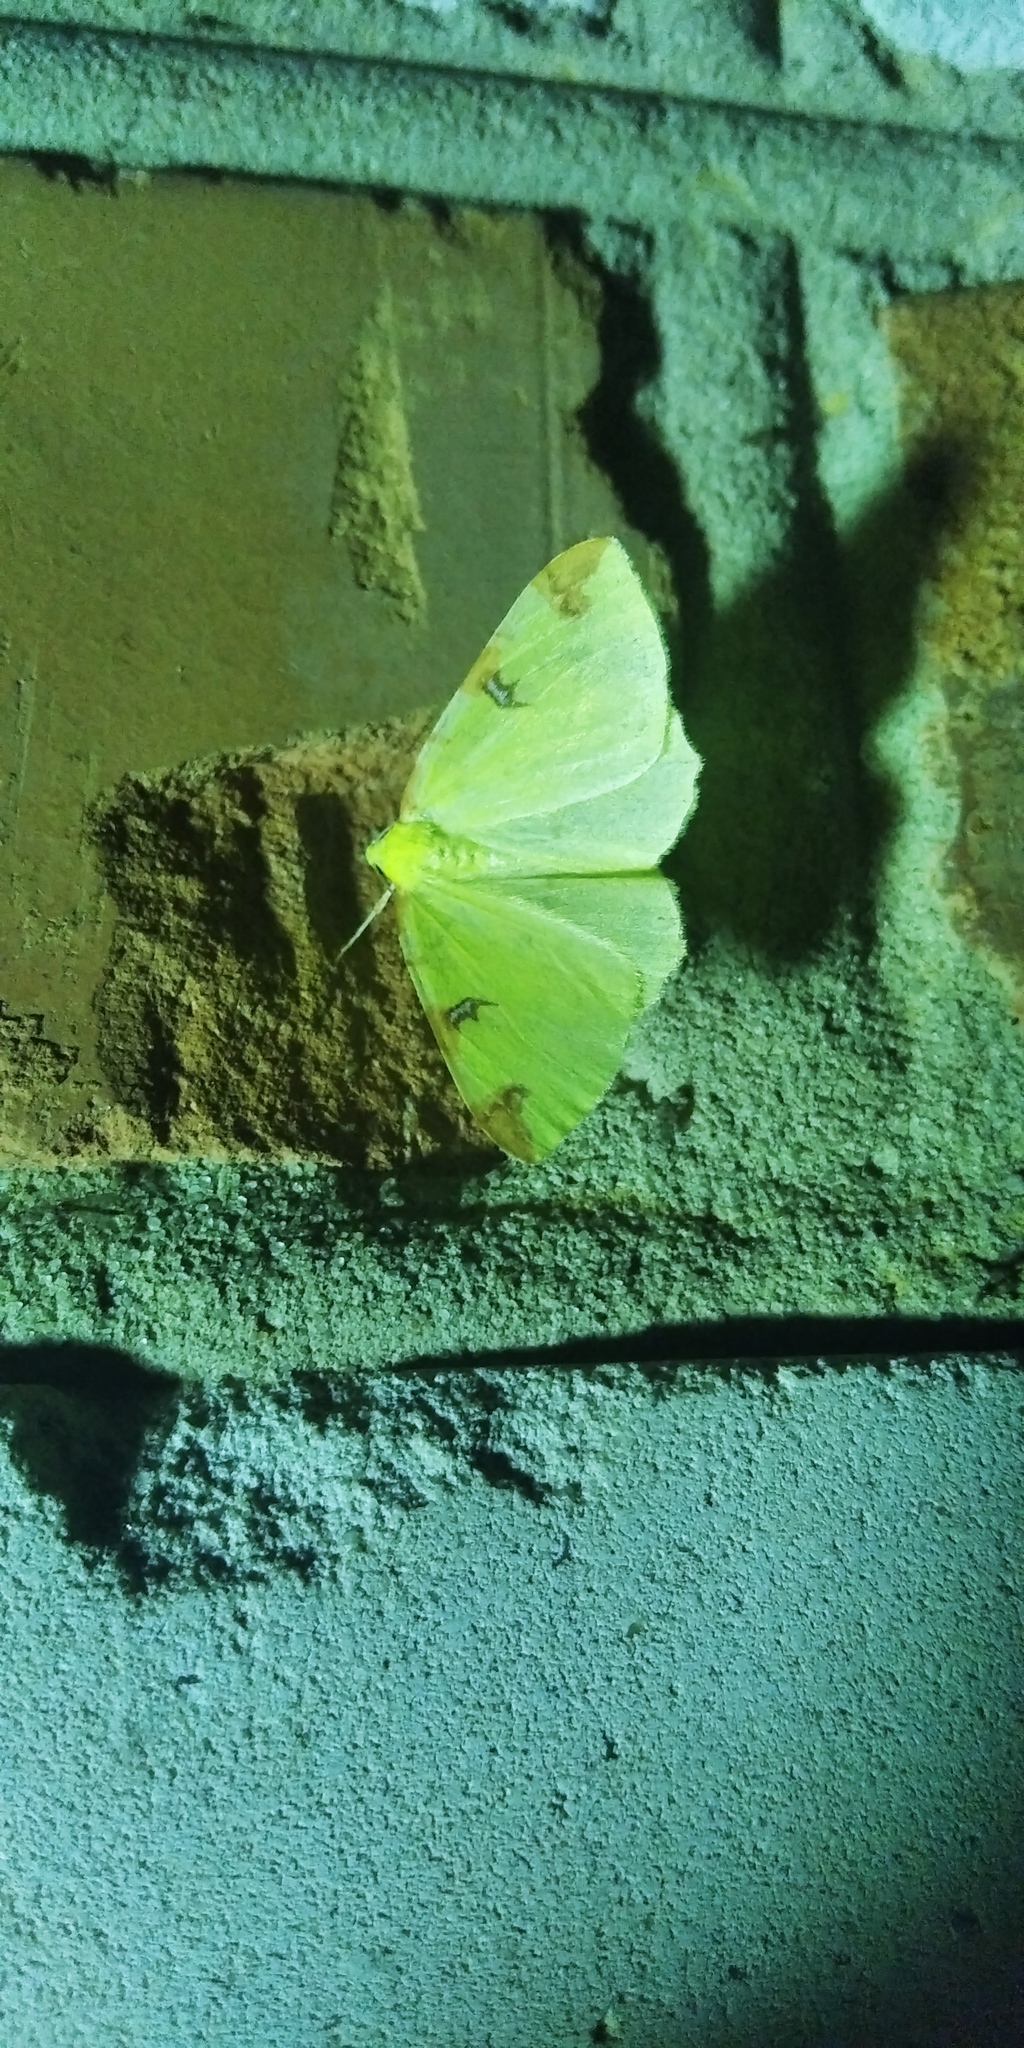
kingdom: Animalia
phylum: Arthropoda
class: Insecta
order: Lepidoptera
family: Geometridae
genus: Opisthograptis
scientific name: Opisthograptis luteolata
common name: Brimstone moth
